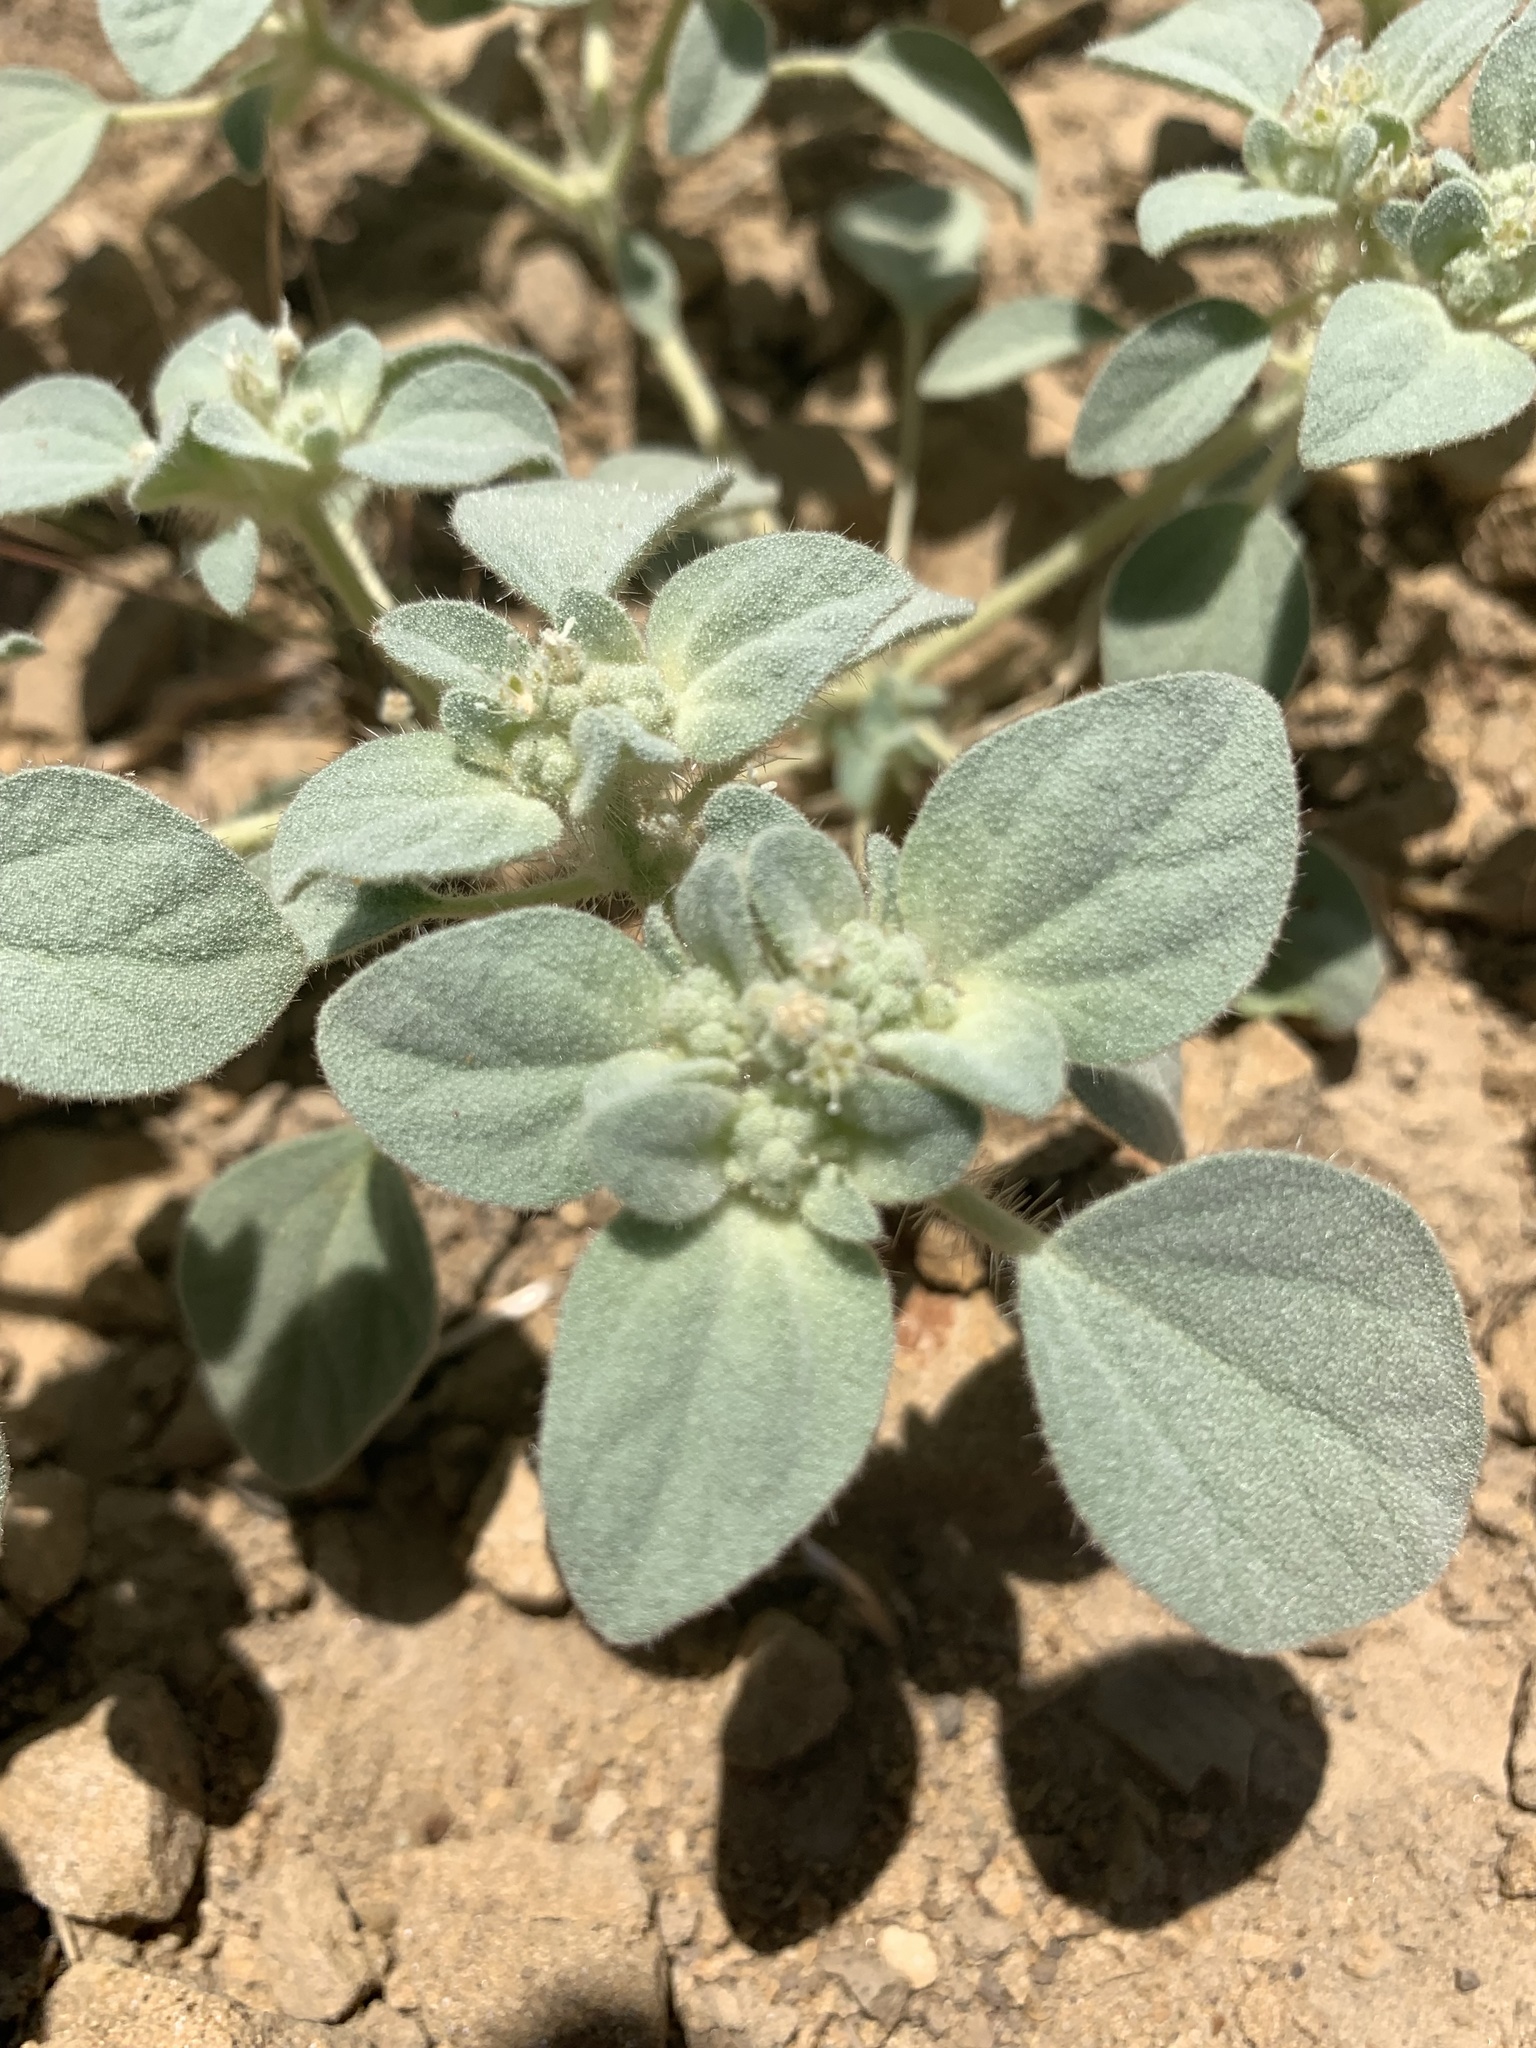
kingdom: Plantae
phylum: Tracheophyta
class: Magnoliopsida
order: Malpighiales
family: Euphorbiaceae
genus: Croton
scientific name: Croton setiger
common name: Dove weed
